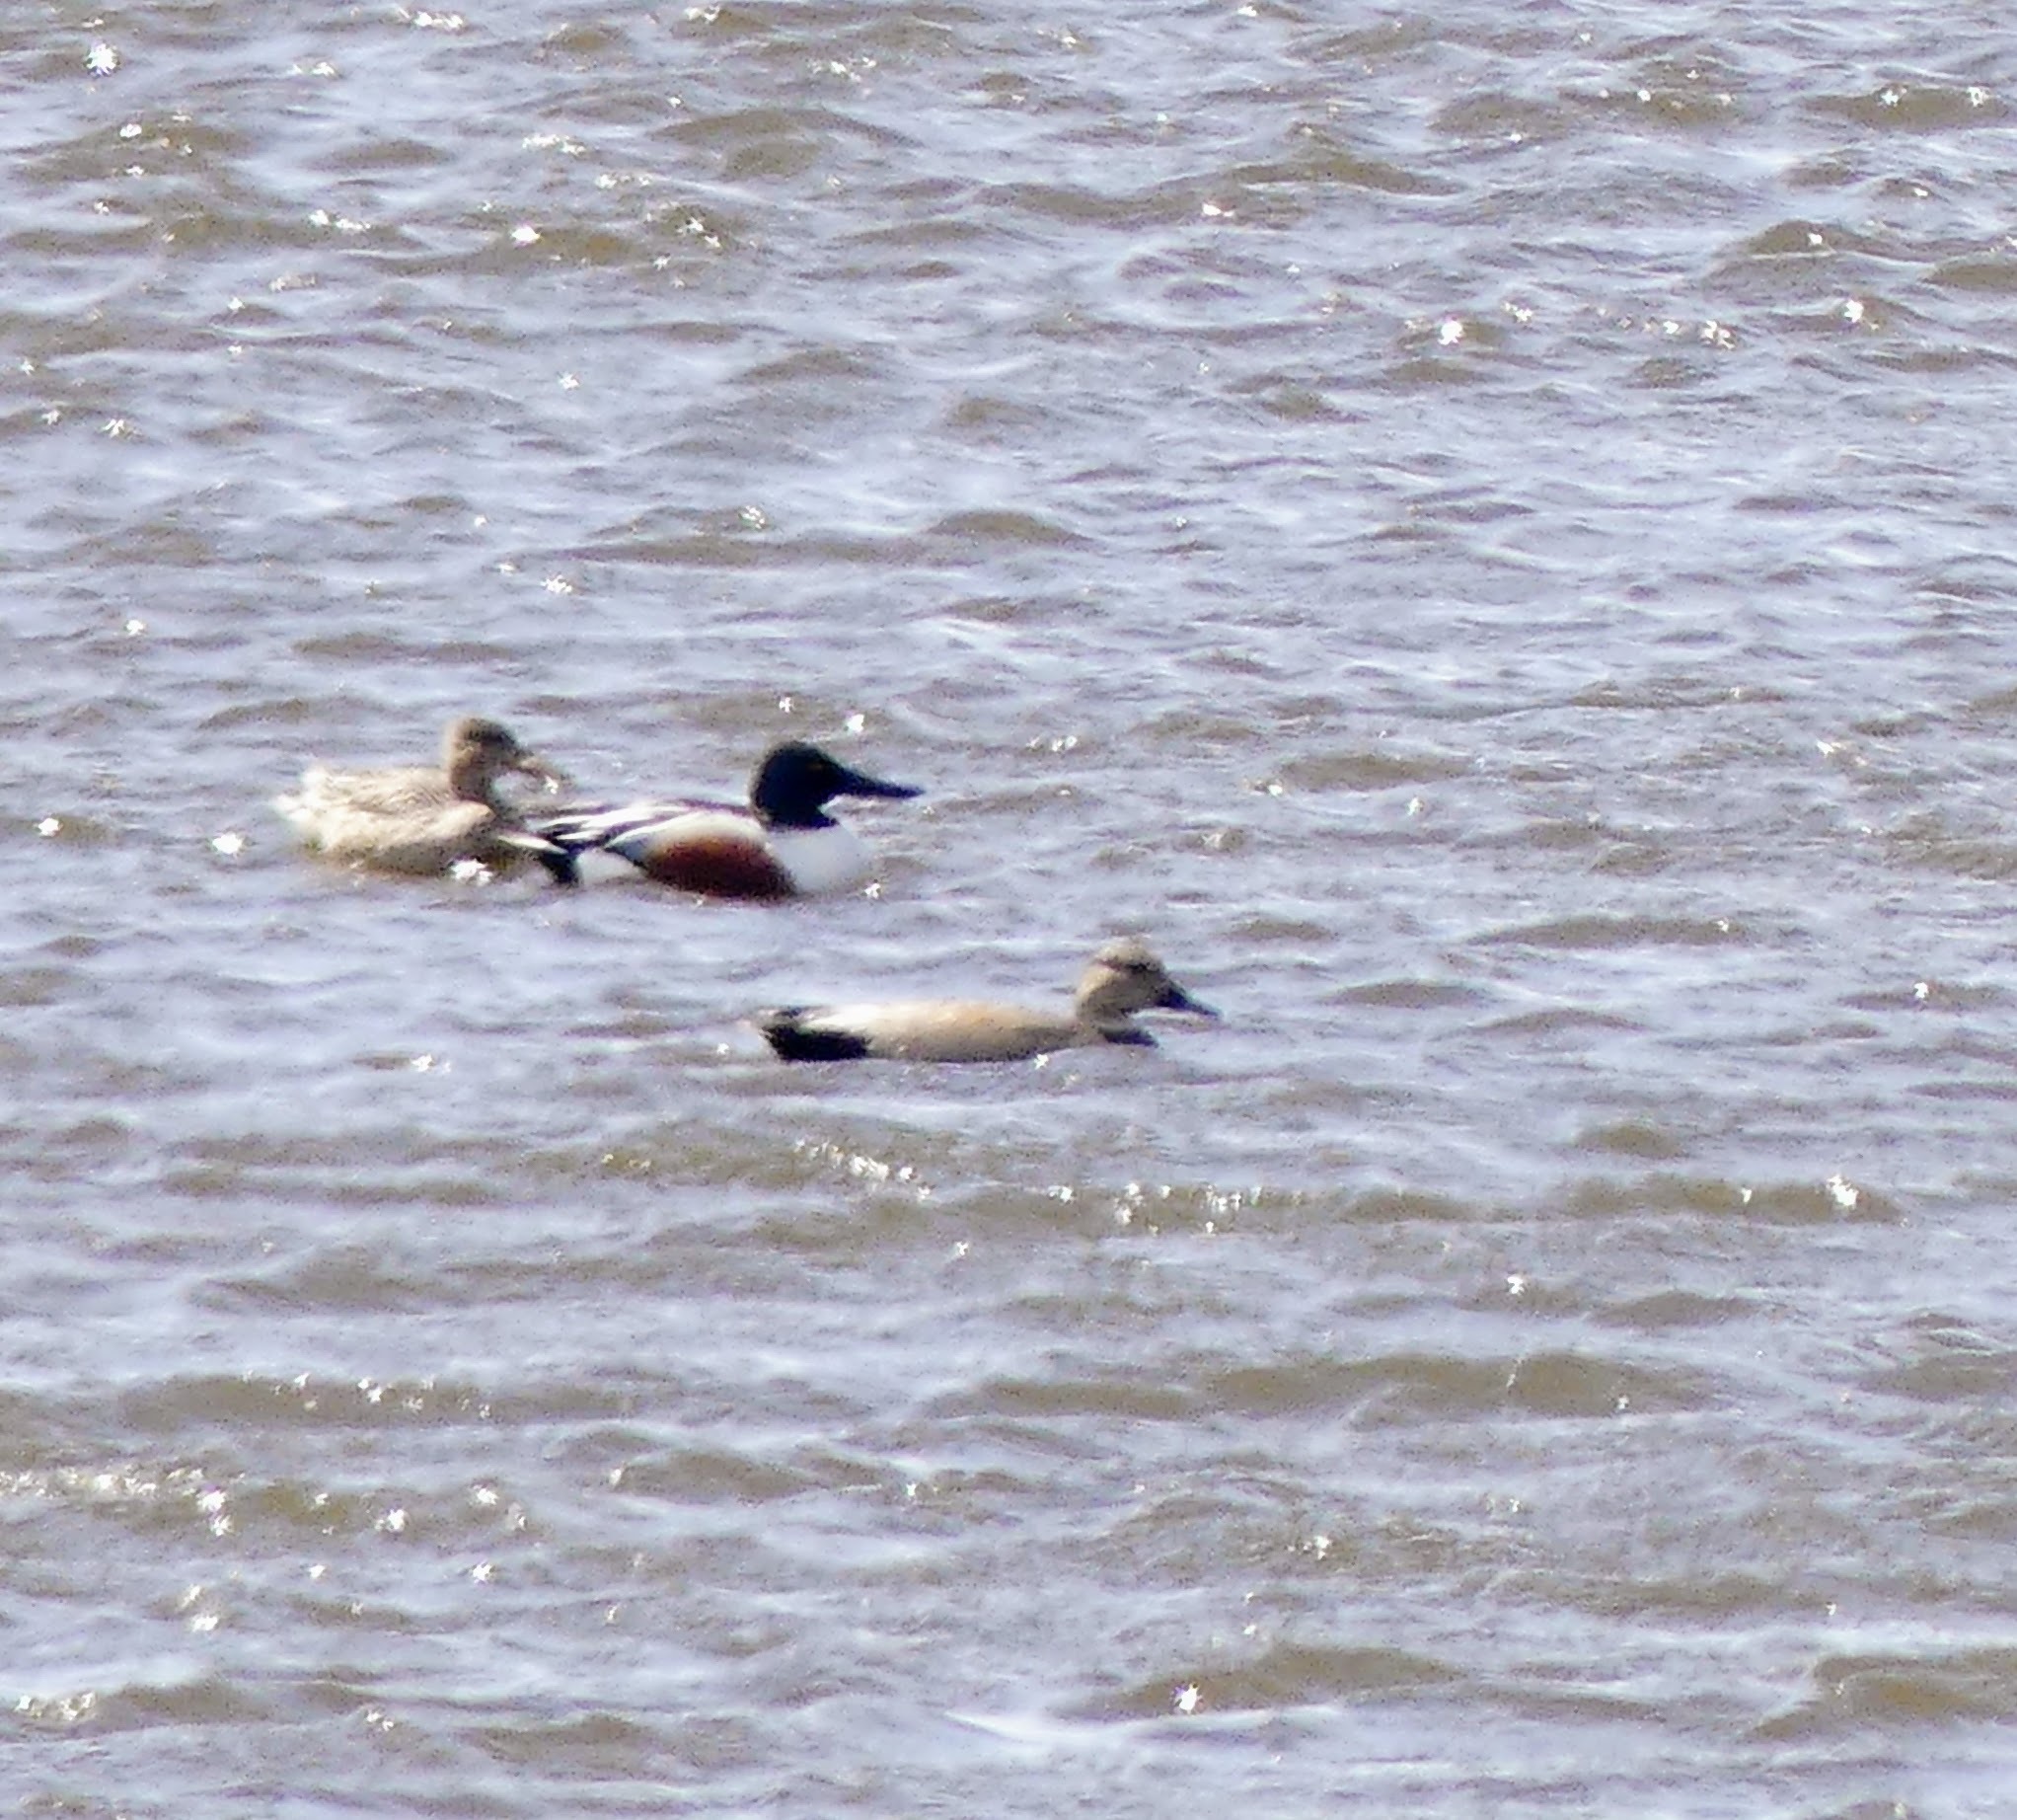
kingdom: Animalia
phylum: Chordata
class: Aves
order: Anseriformes
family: Anatidae
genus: Mareca
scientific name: Mareca strepera
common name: Gadwall
